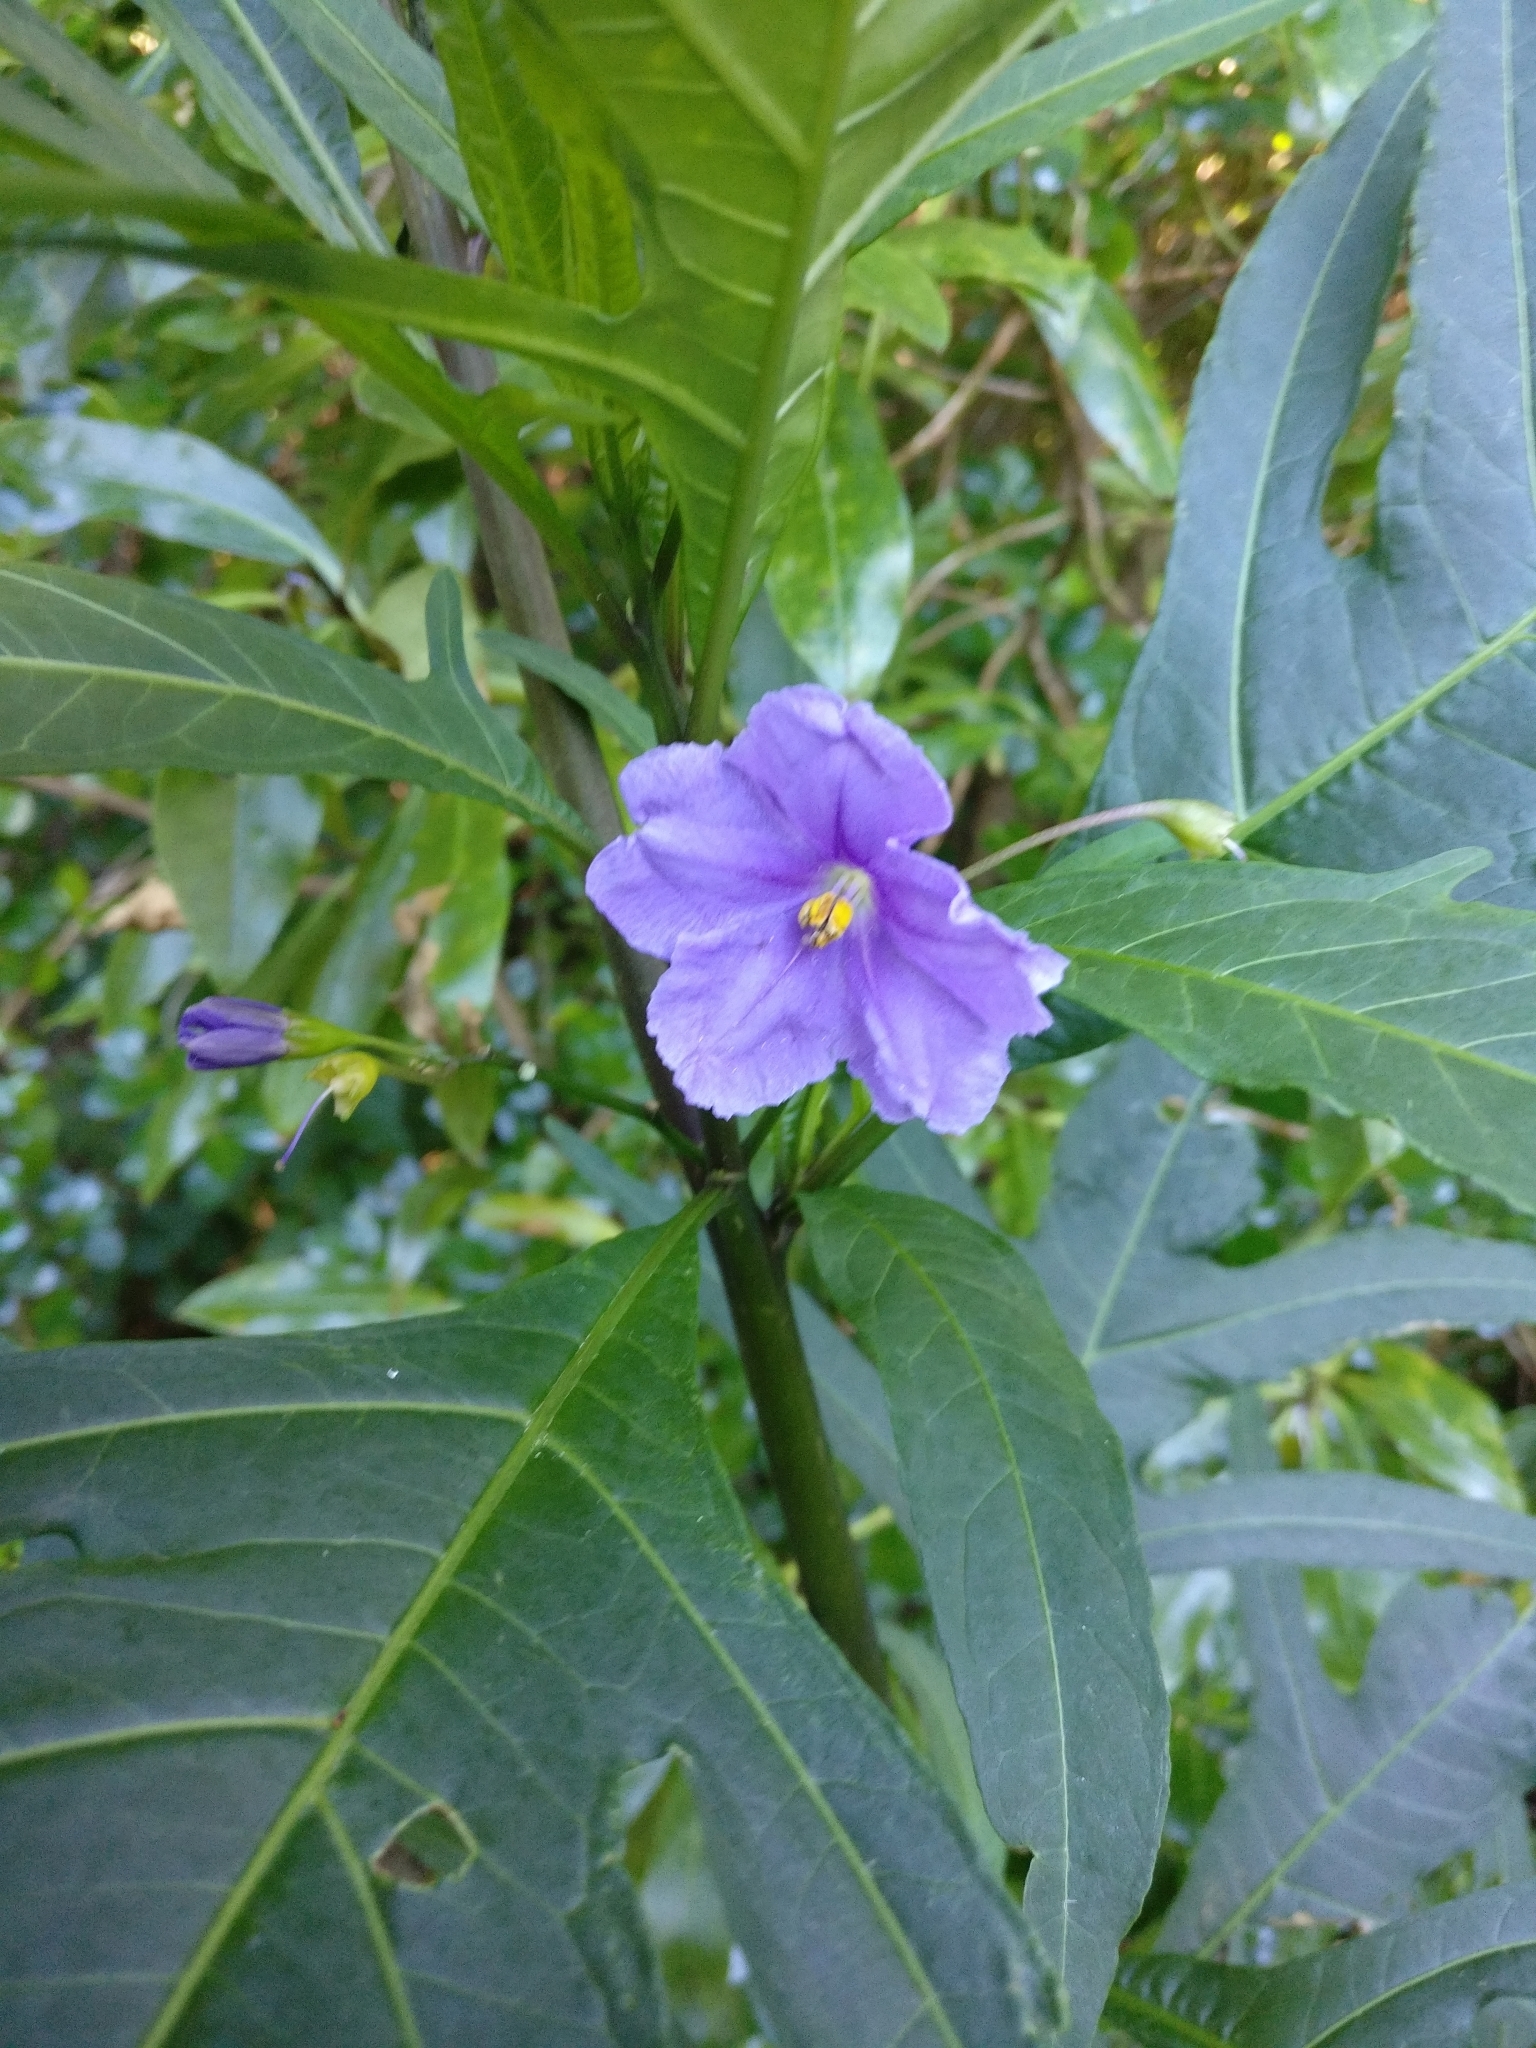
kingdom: Plantae
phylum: Tracheophyta
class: Magnoliopsida
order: Solanales
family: Solanaceae
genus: Solanum
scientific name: Solanum laciniatum
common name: Kangaroo-apple
